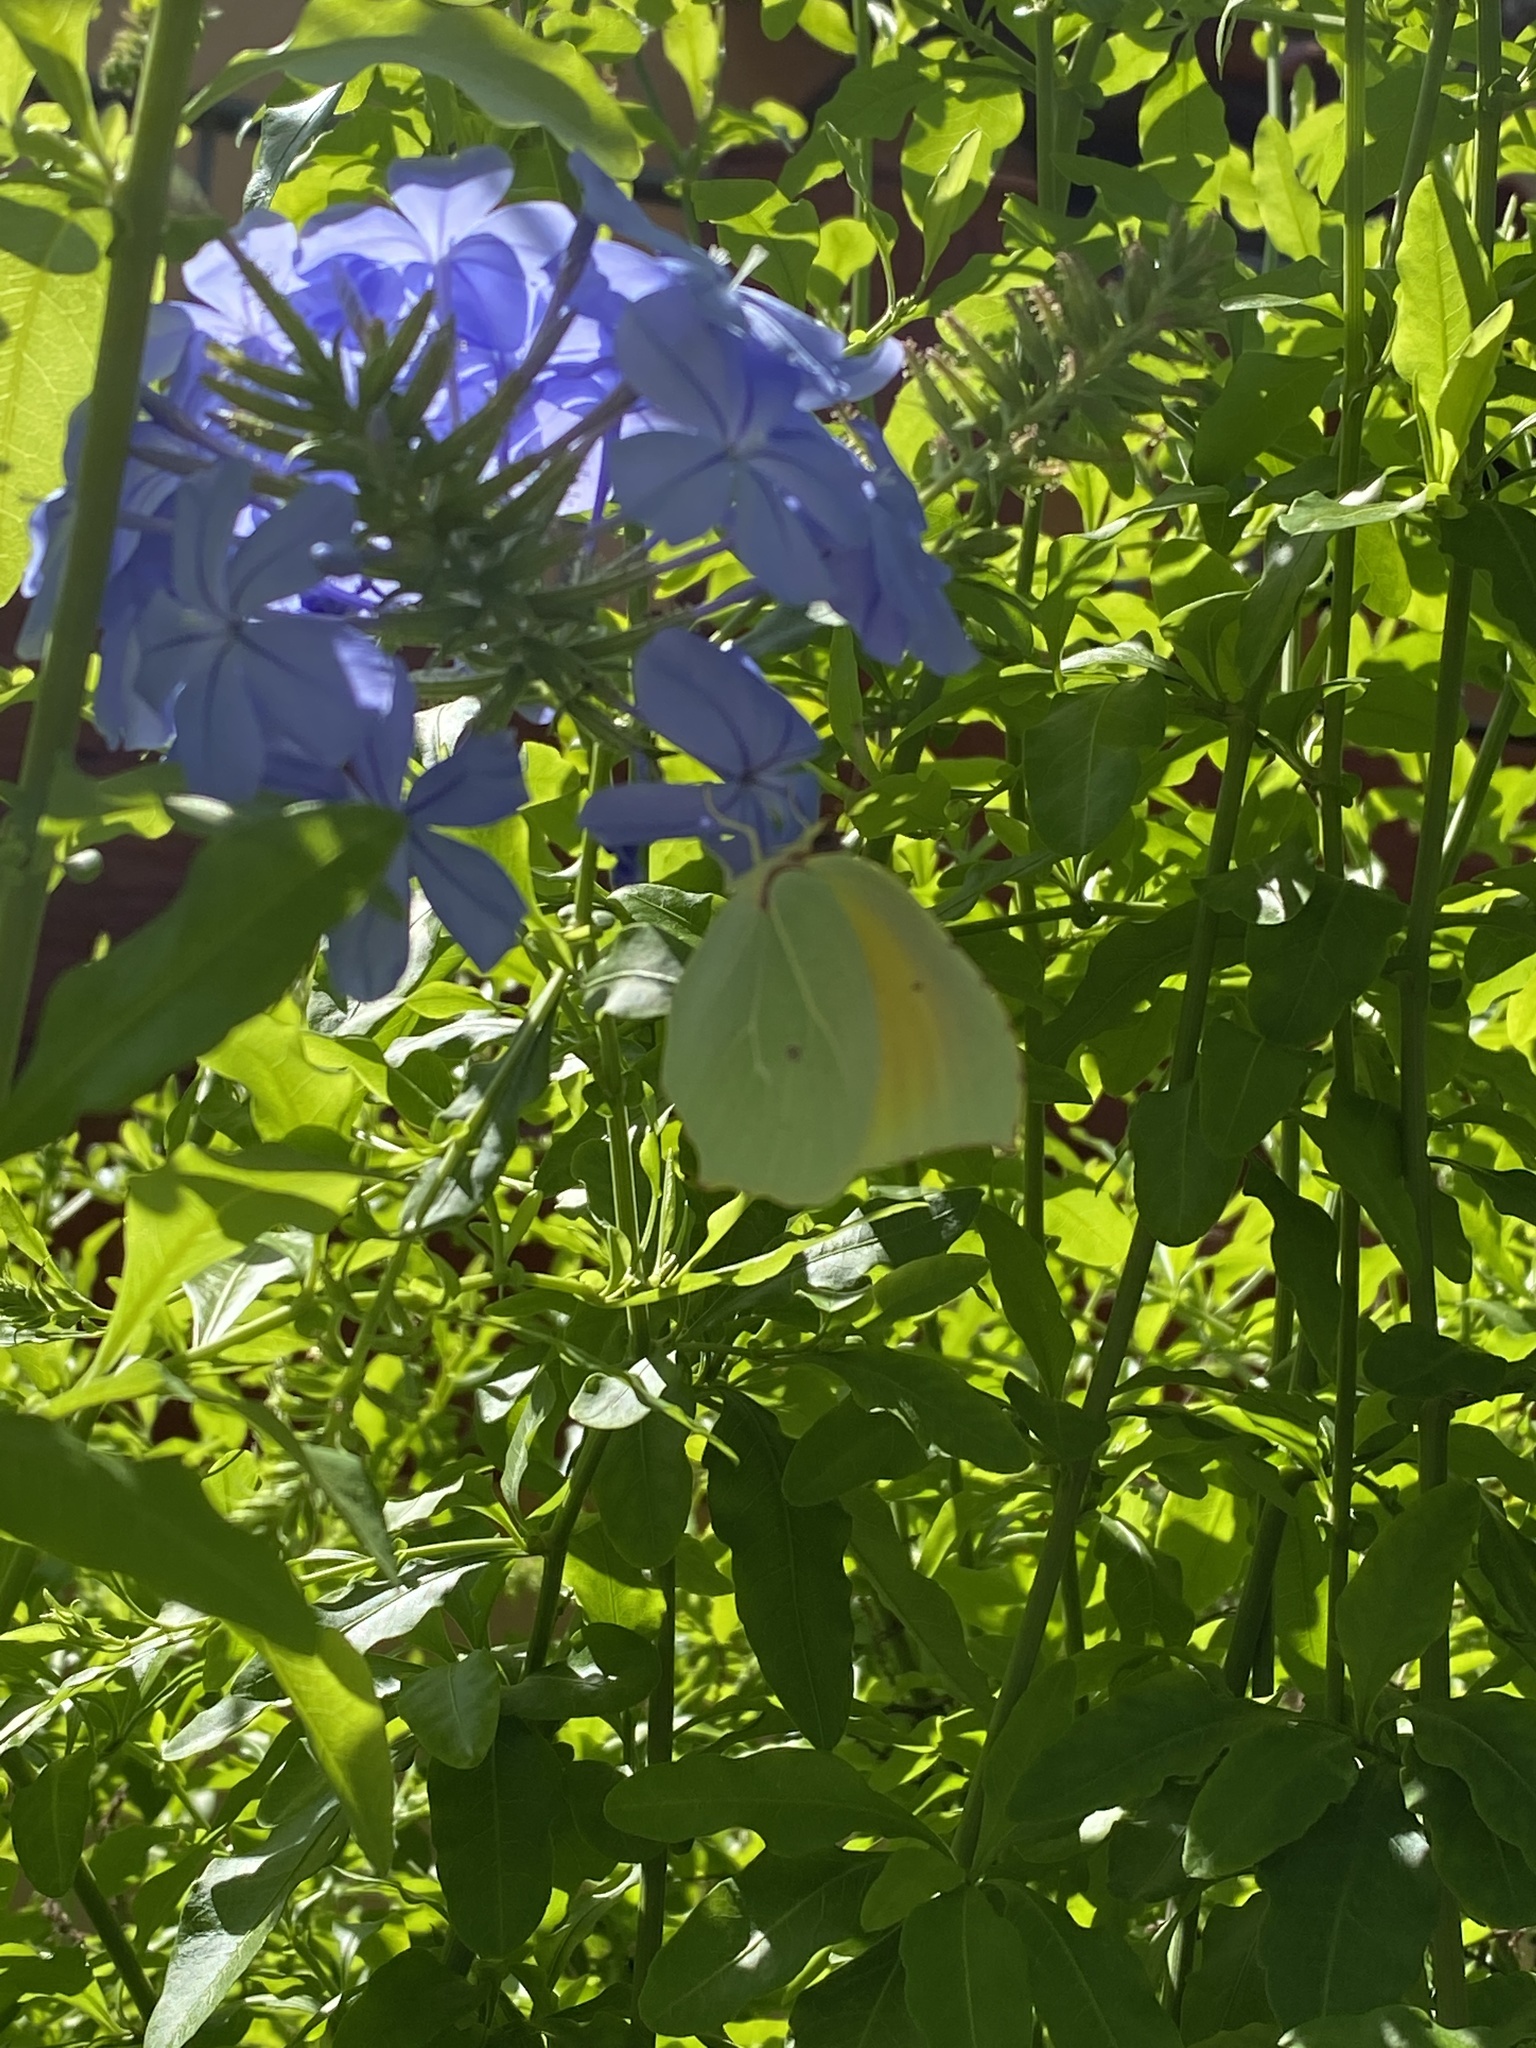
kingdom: Animalia
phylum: Arthropoda
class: Insecta
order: Lepidoptera
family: Pieridae
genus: Gonepteryx
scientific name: Gonepteryx cleopatra
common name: Cleopatra
